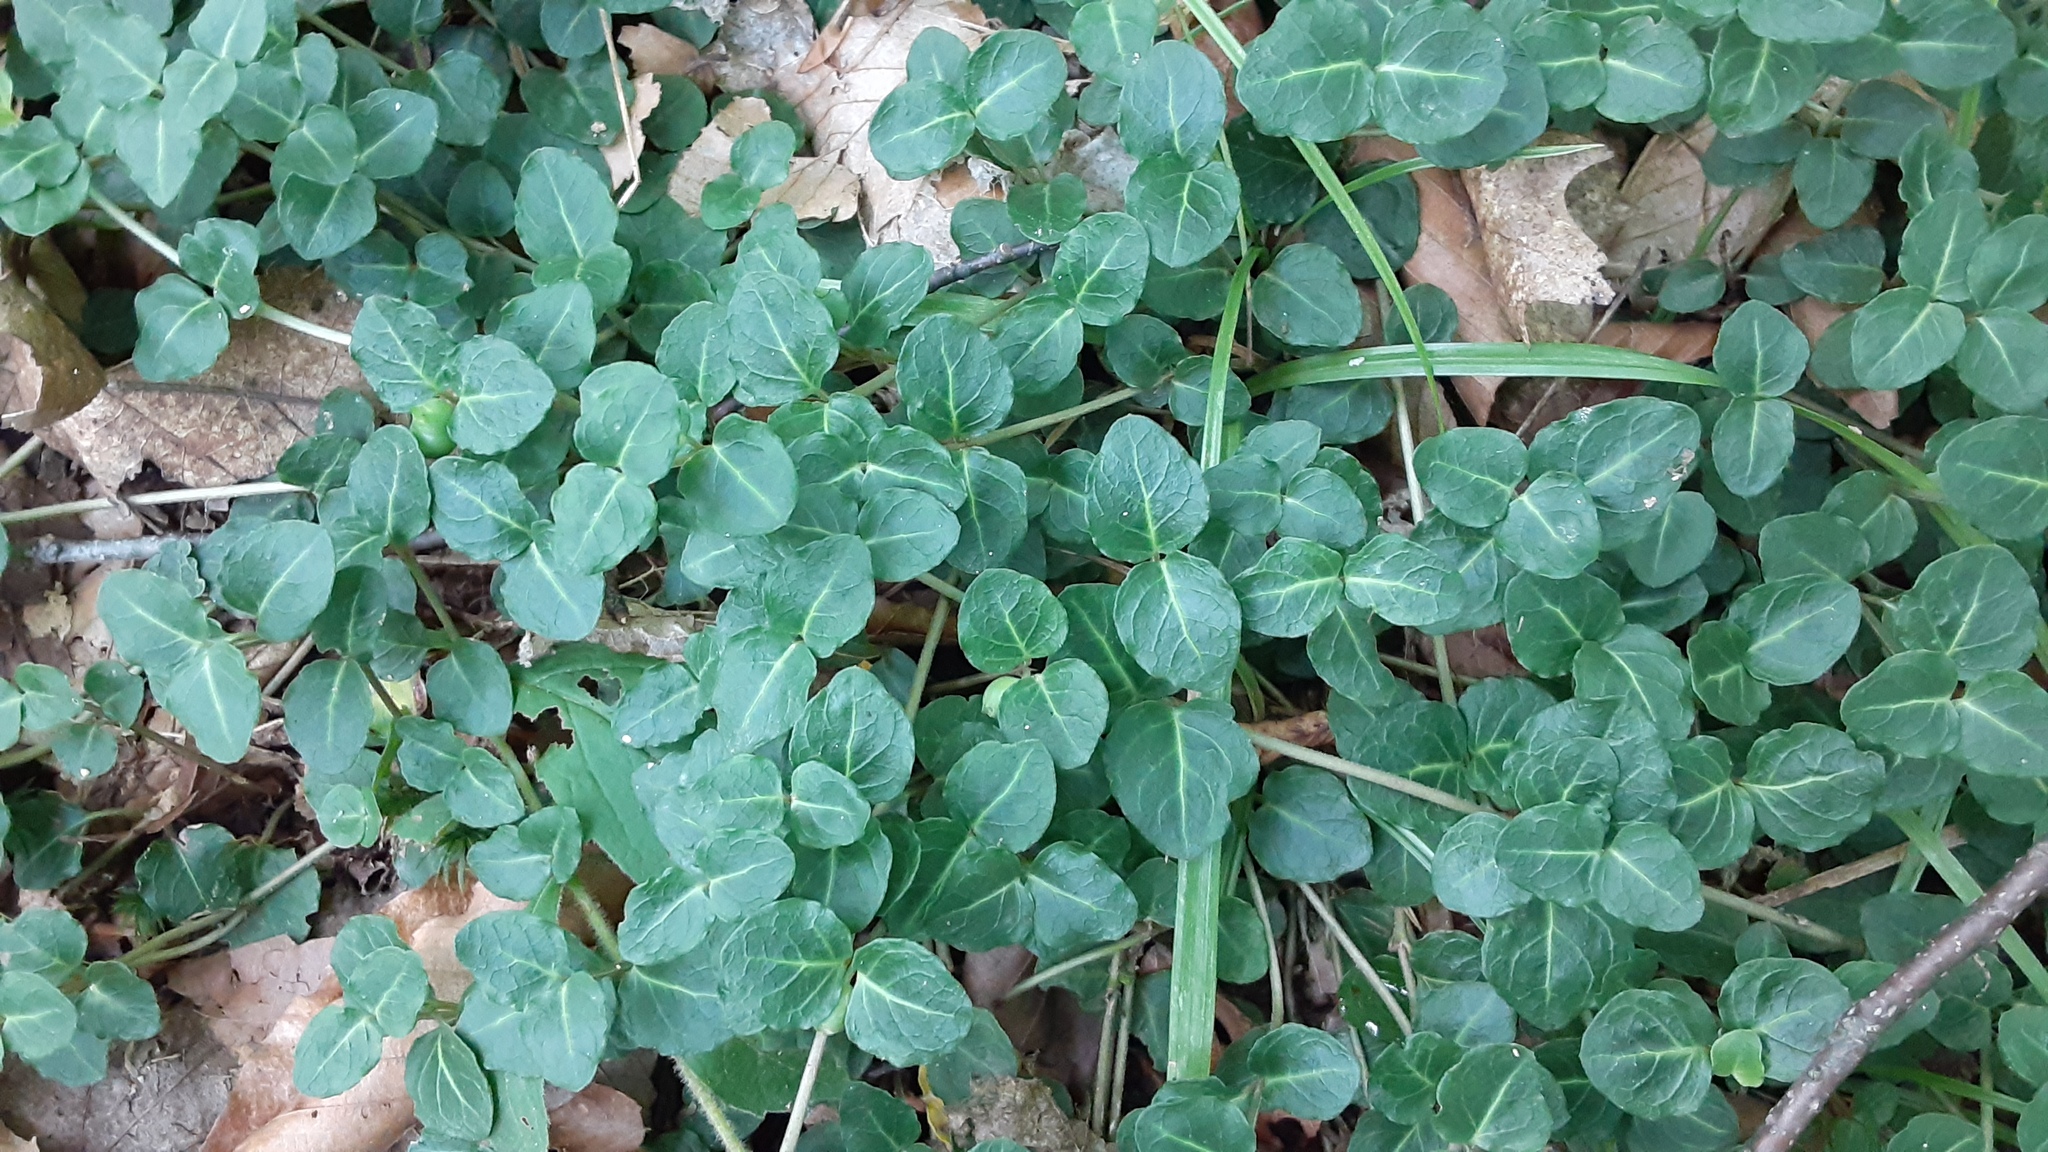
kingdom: Plantae
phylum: Tracheophyta
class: Magnoliopsida
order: Gentianales
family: Rubiaceae
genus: Mitchella
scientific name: Mitchella repens
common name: Partridge-berry
